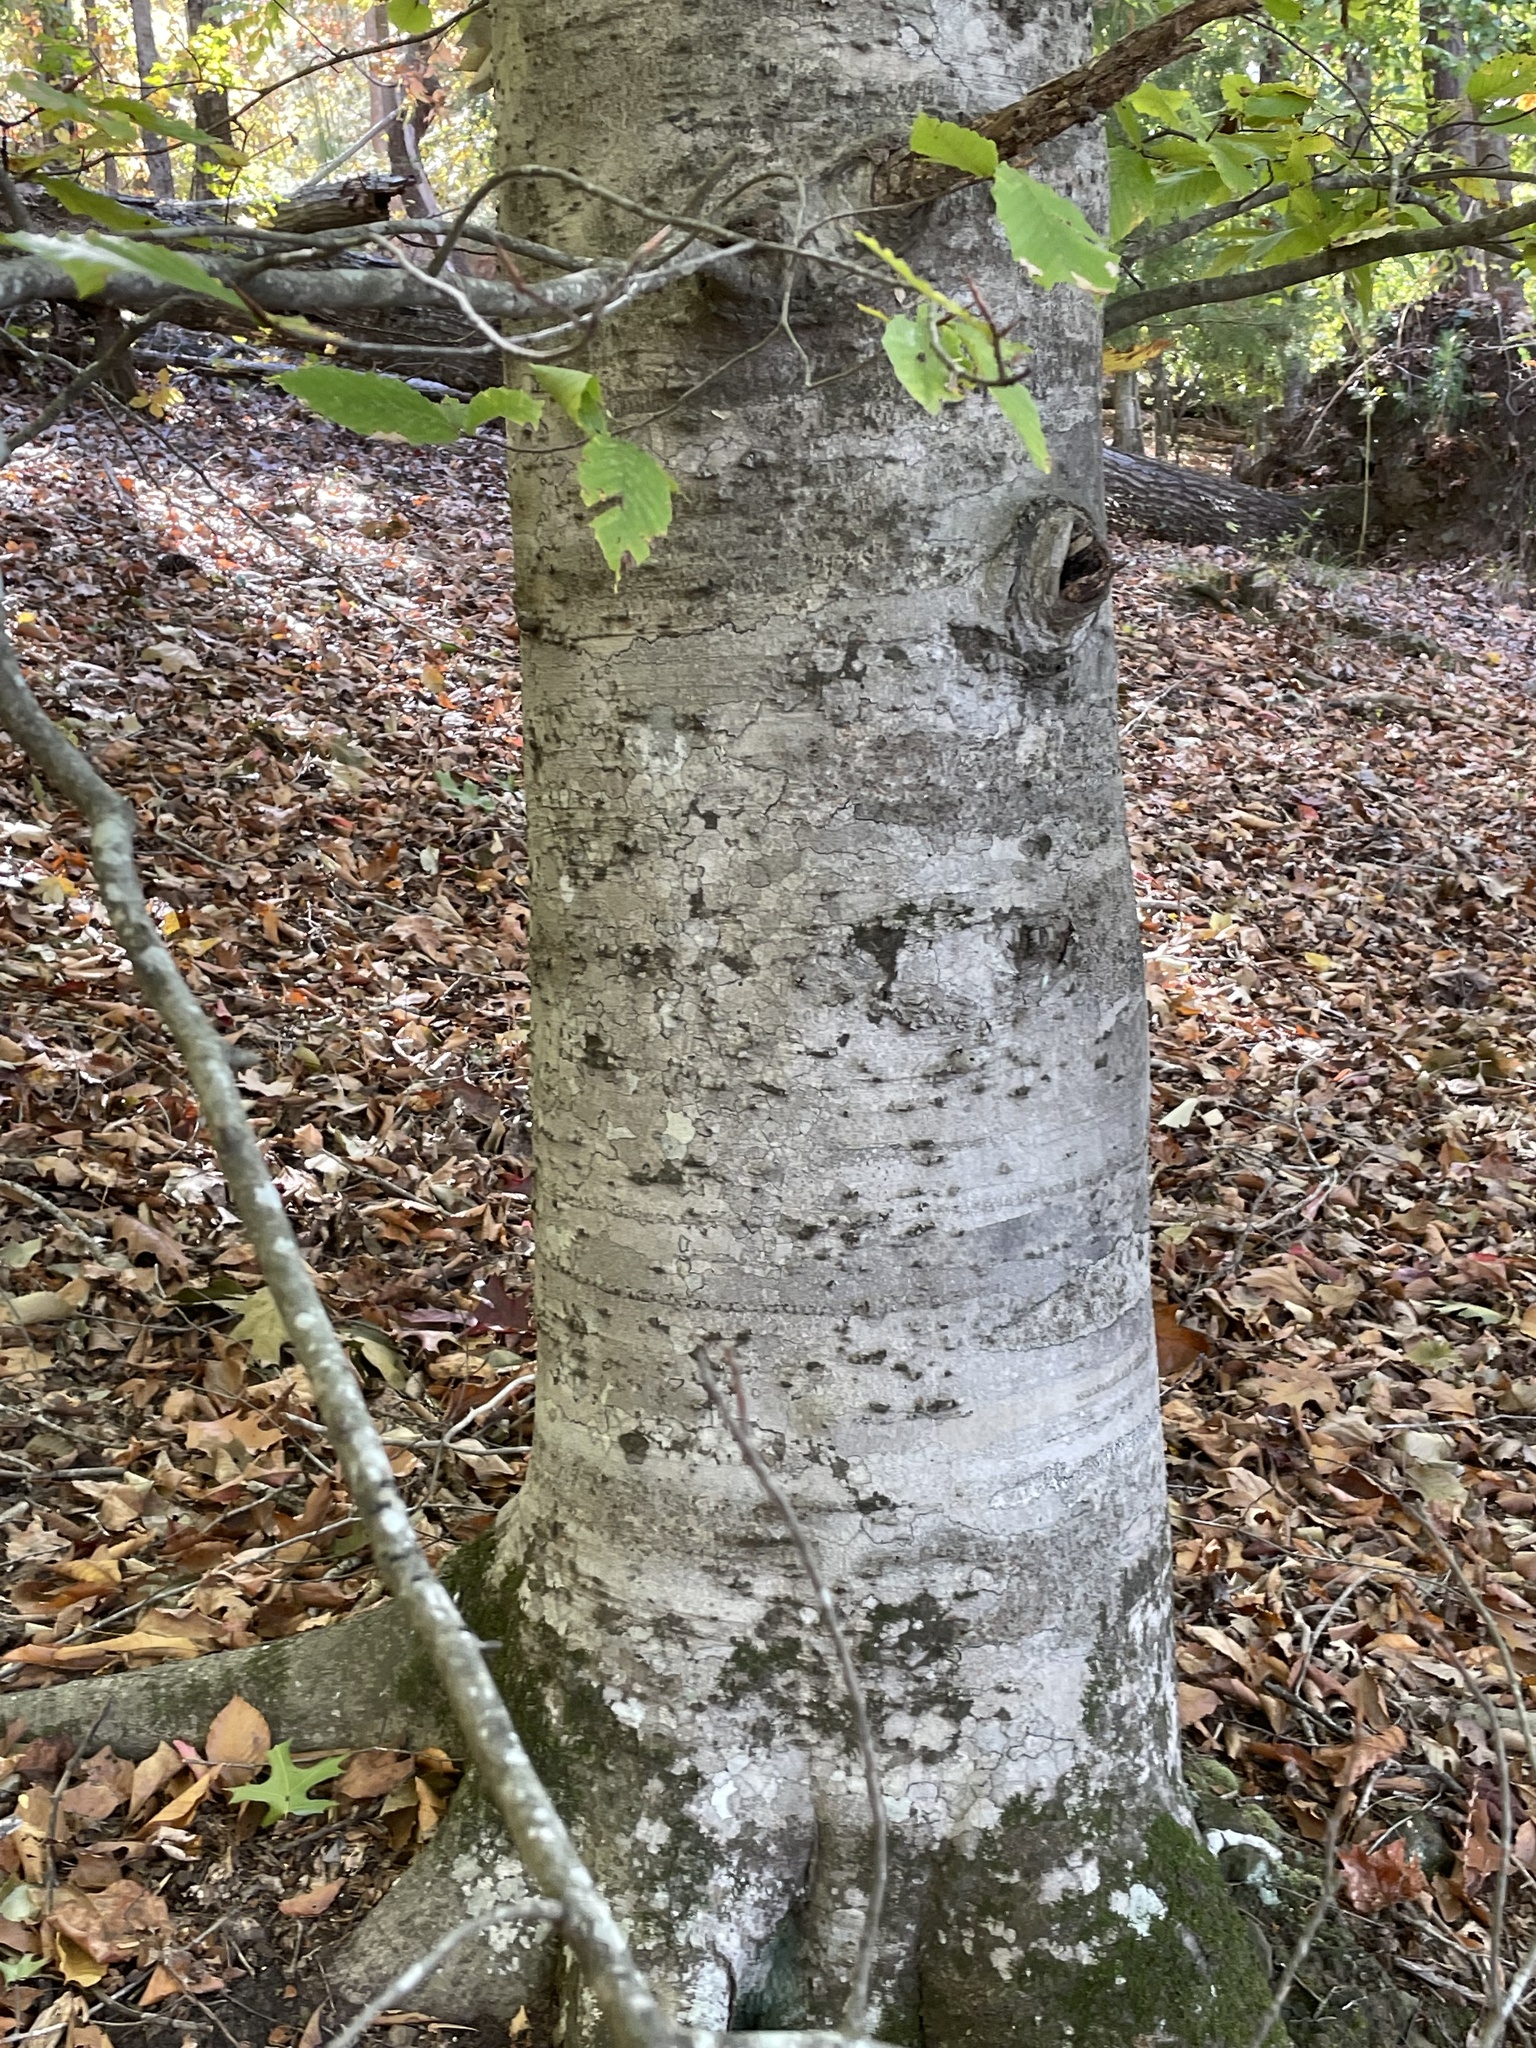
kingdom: Plantae
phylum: Tracheophyta
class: Magnoliopsida
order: Fagales
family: Fagaceae
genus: Fagus
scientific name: Fagus grandifolia
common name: American beech
